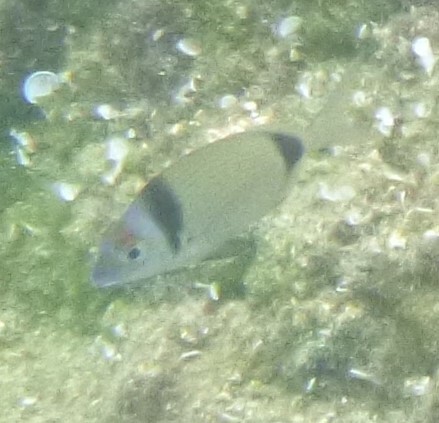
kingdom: Animalia
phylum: Chordata
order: Perciformes
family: Sparidae
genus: Diplodus
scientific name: Diplodus vulgaris
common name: Common two-banded seabream
